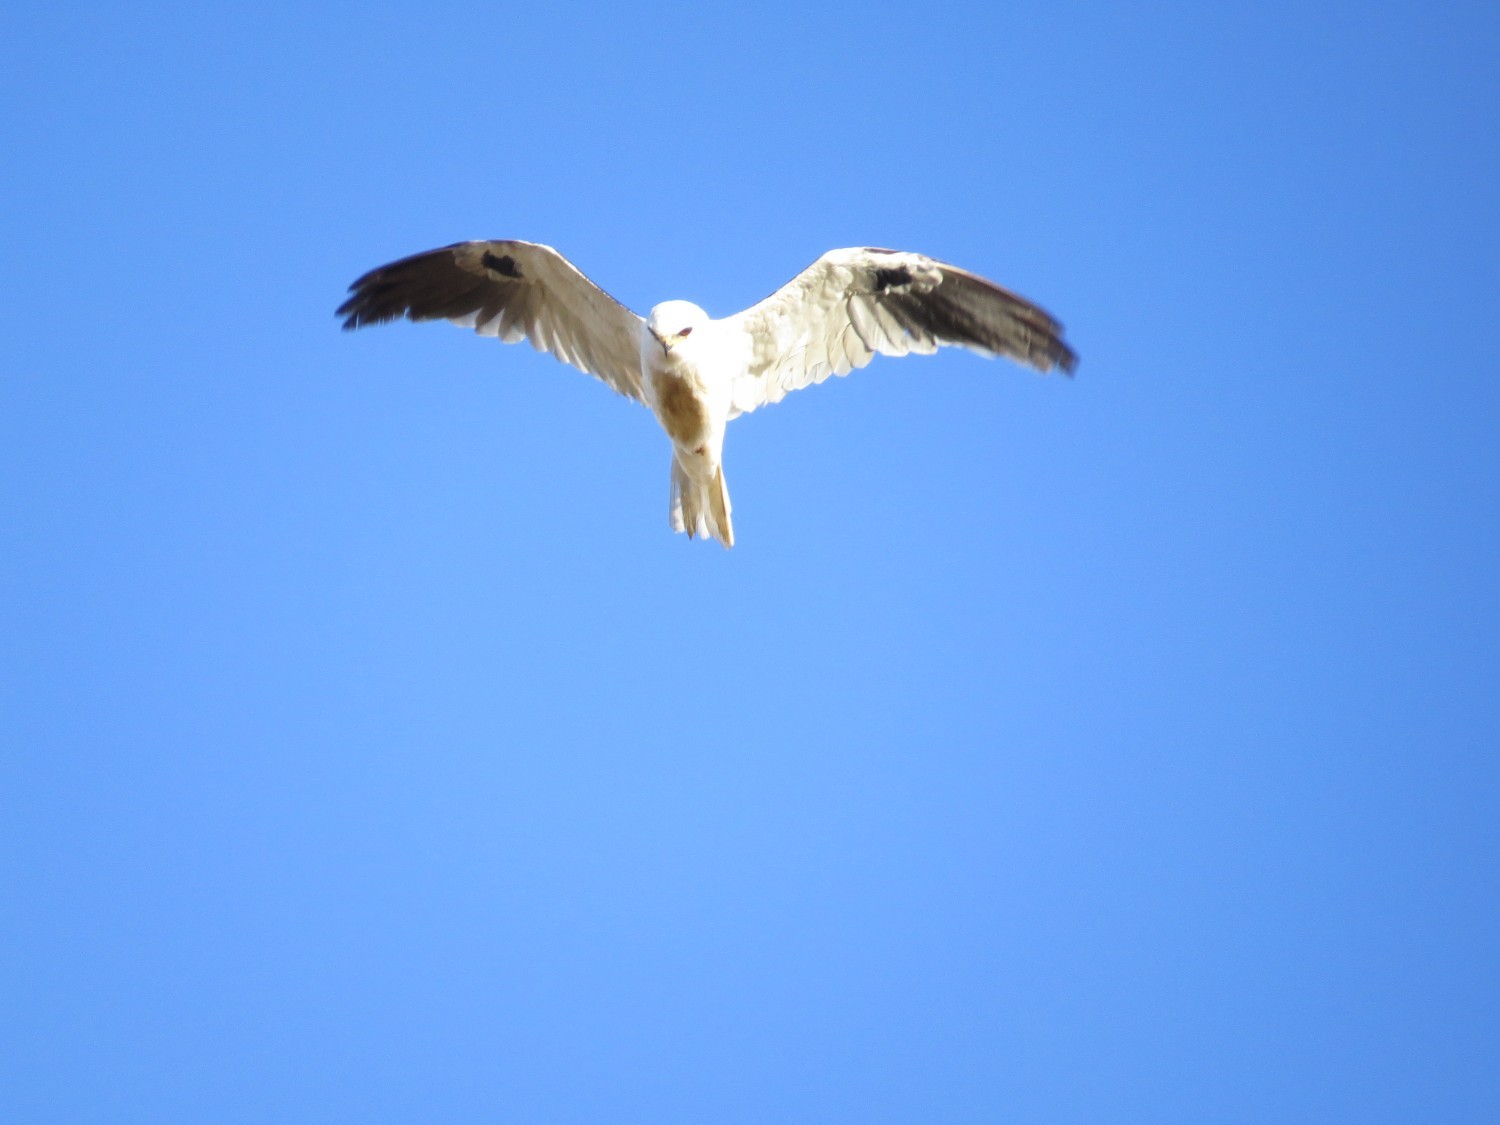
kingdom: Animalia
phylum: Chordata
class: Aves
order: Accipitriformes
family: Accipitridae
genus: Elanus
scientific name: Elanus leucurus
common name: White-tailed kite
